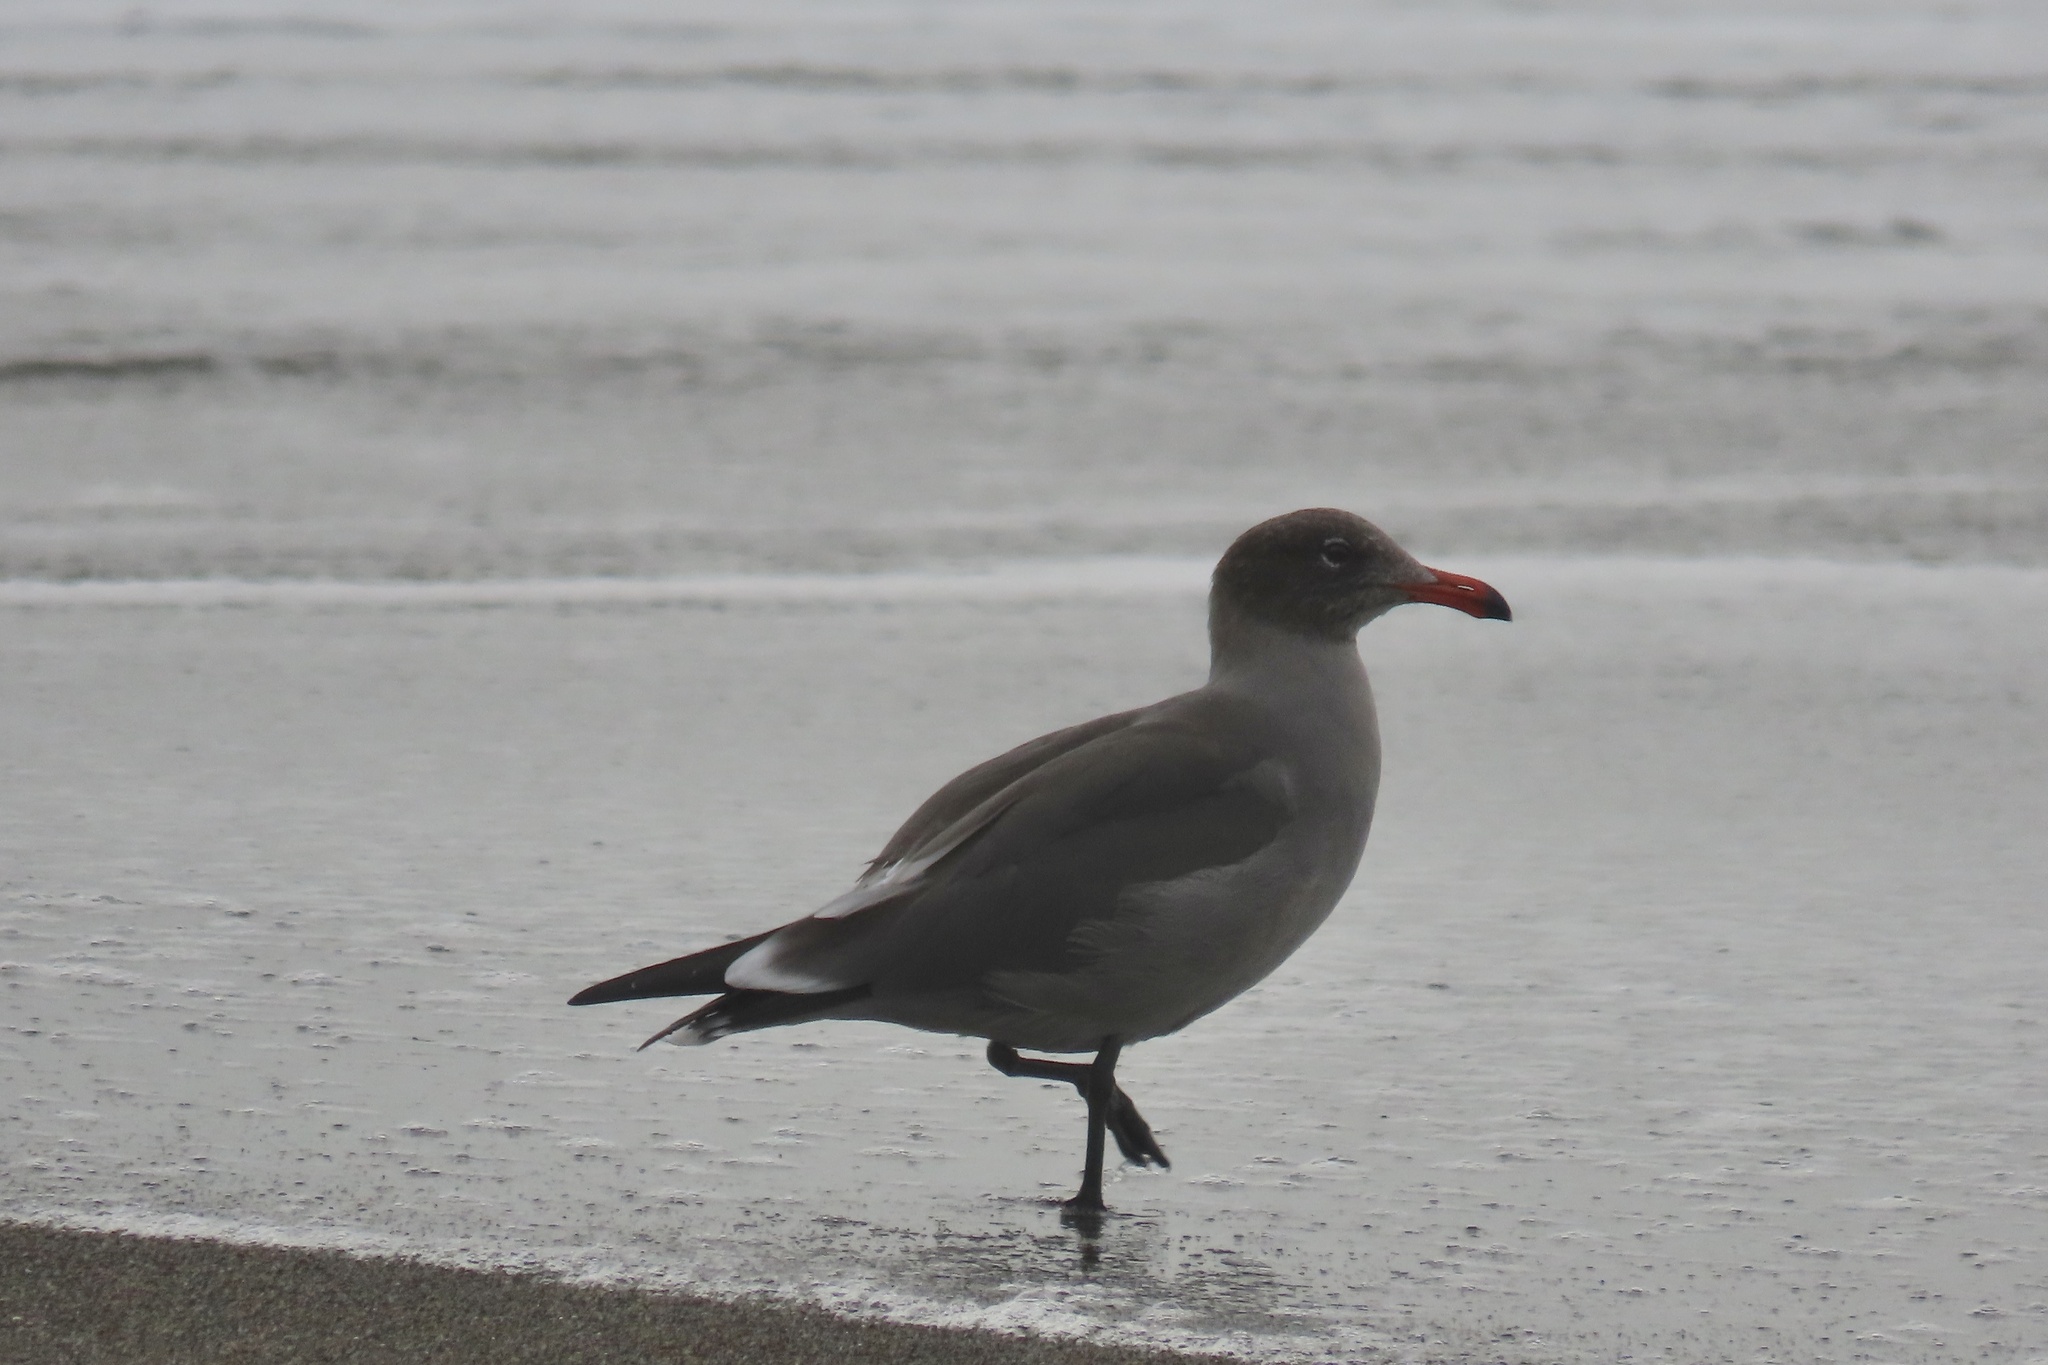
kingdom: Animalia
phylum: Chordata
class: Aves
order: Charadriiformes
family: Laridae
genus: Larus
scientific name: Larus heermanni
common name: Heermann's gull
